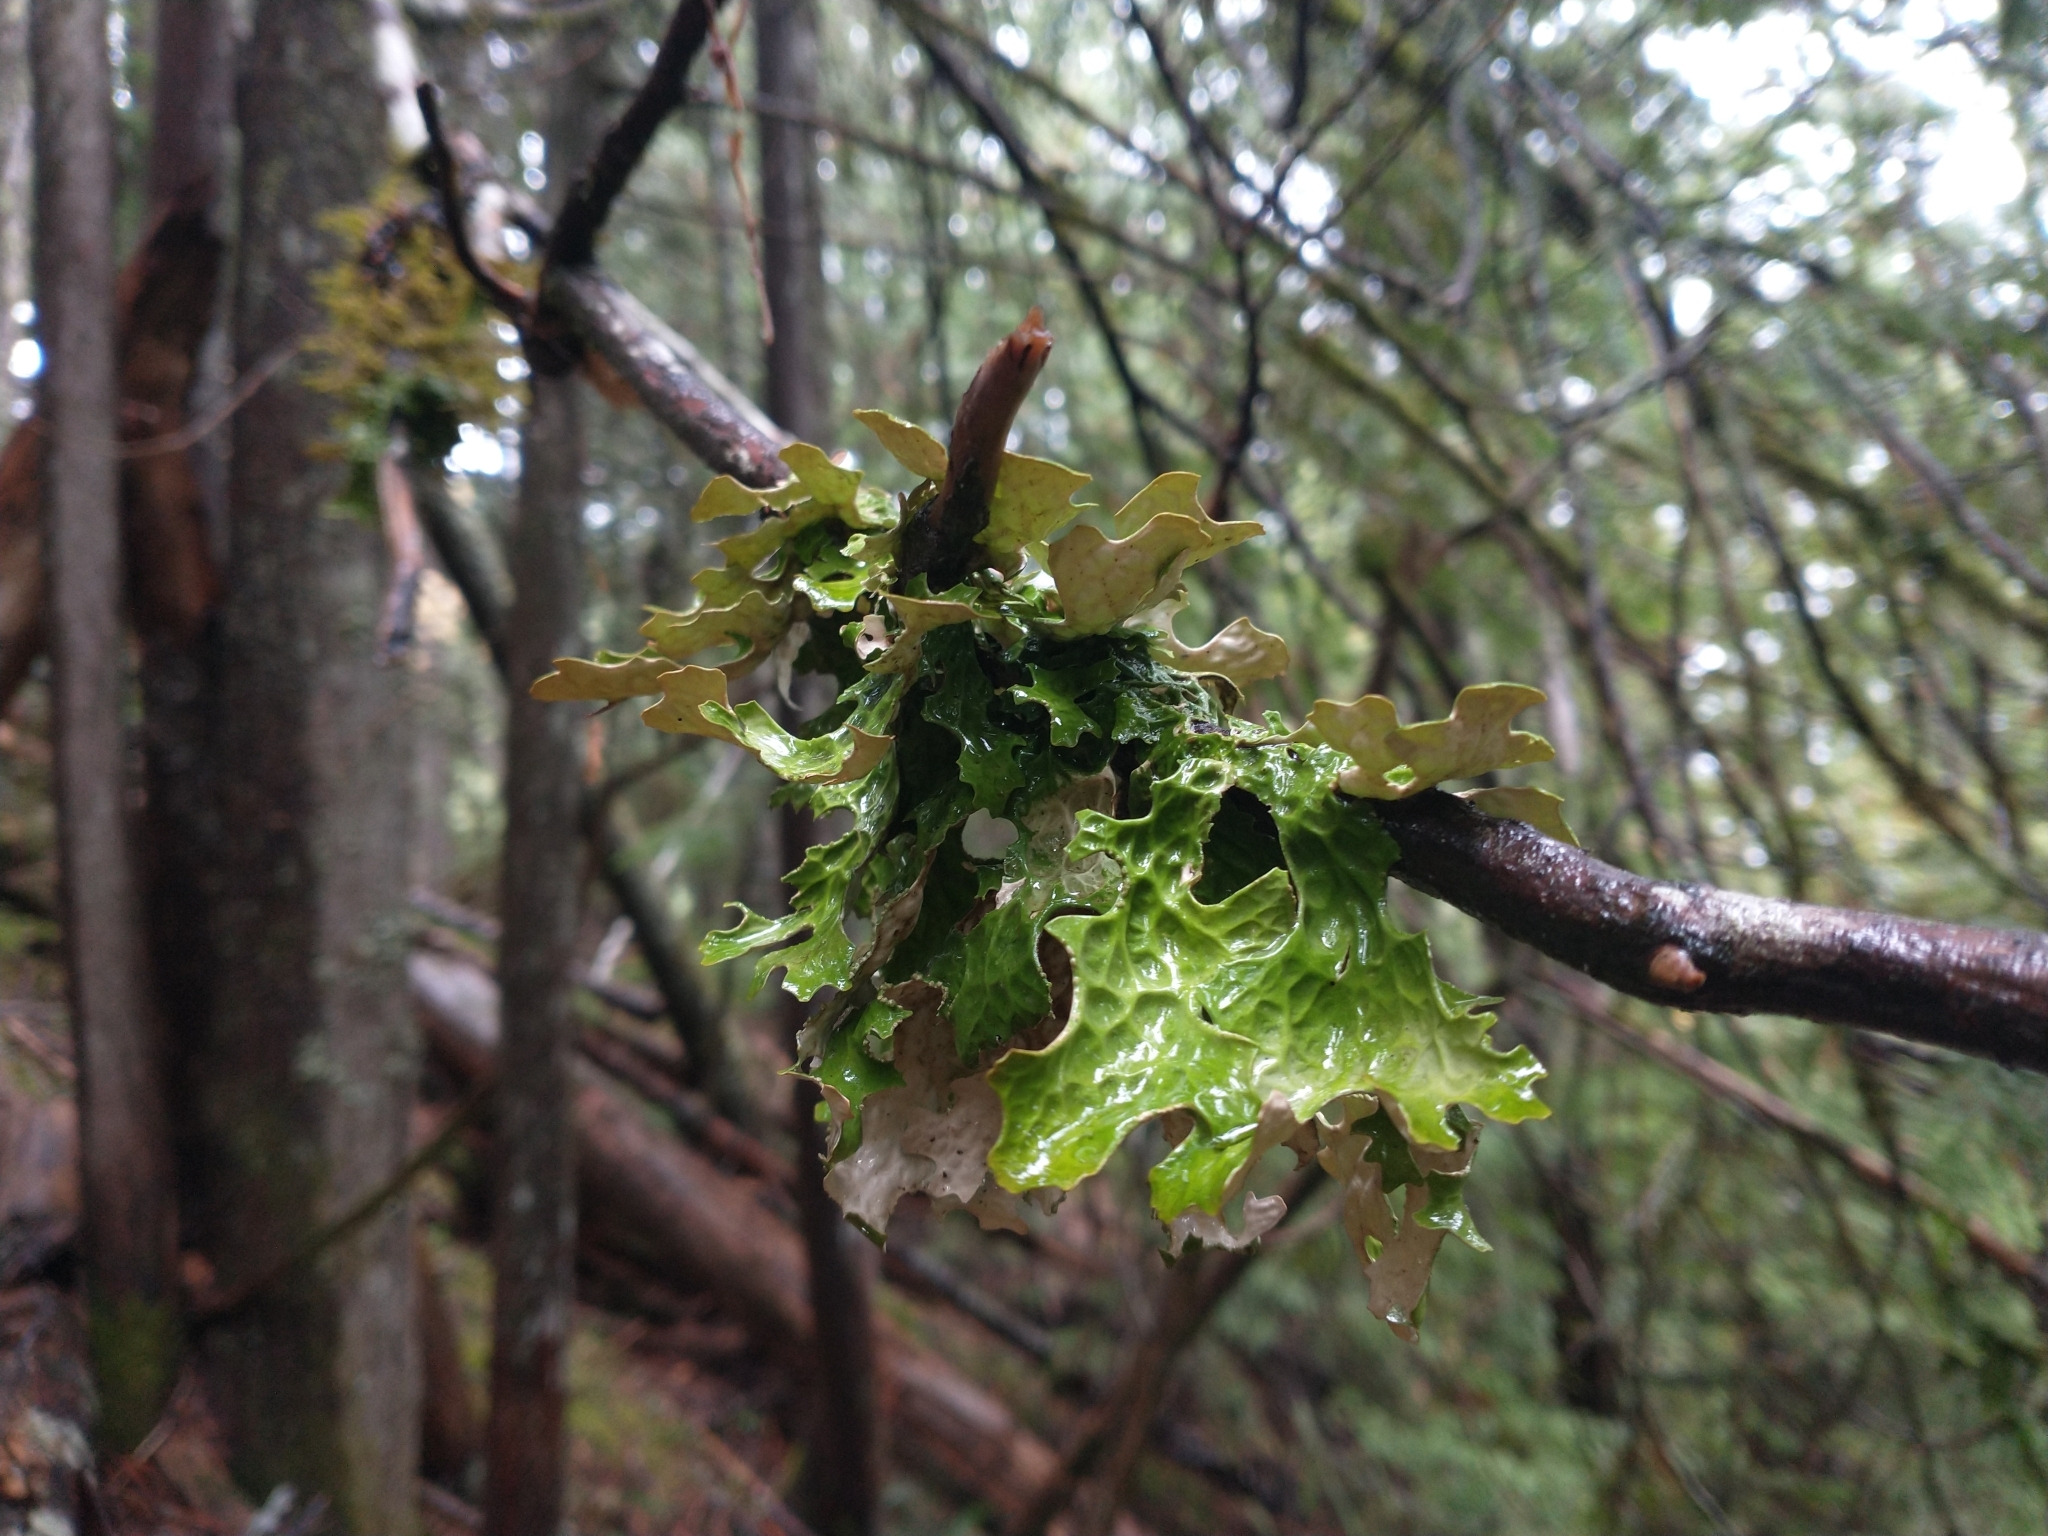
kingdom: Fungi
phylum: Ascomycota
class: Lecanoromycetes
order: Peltigerales
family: Lobariaceae
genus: Lobaria
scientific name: Lobaria pulmonaria
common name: Lungwort
